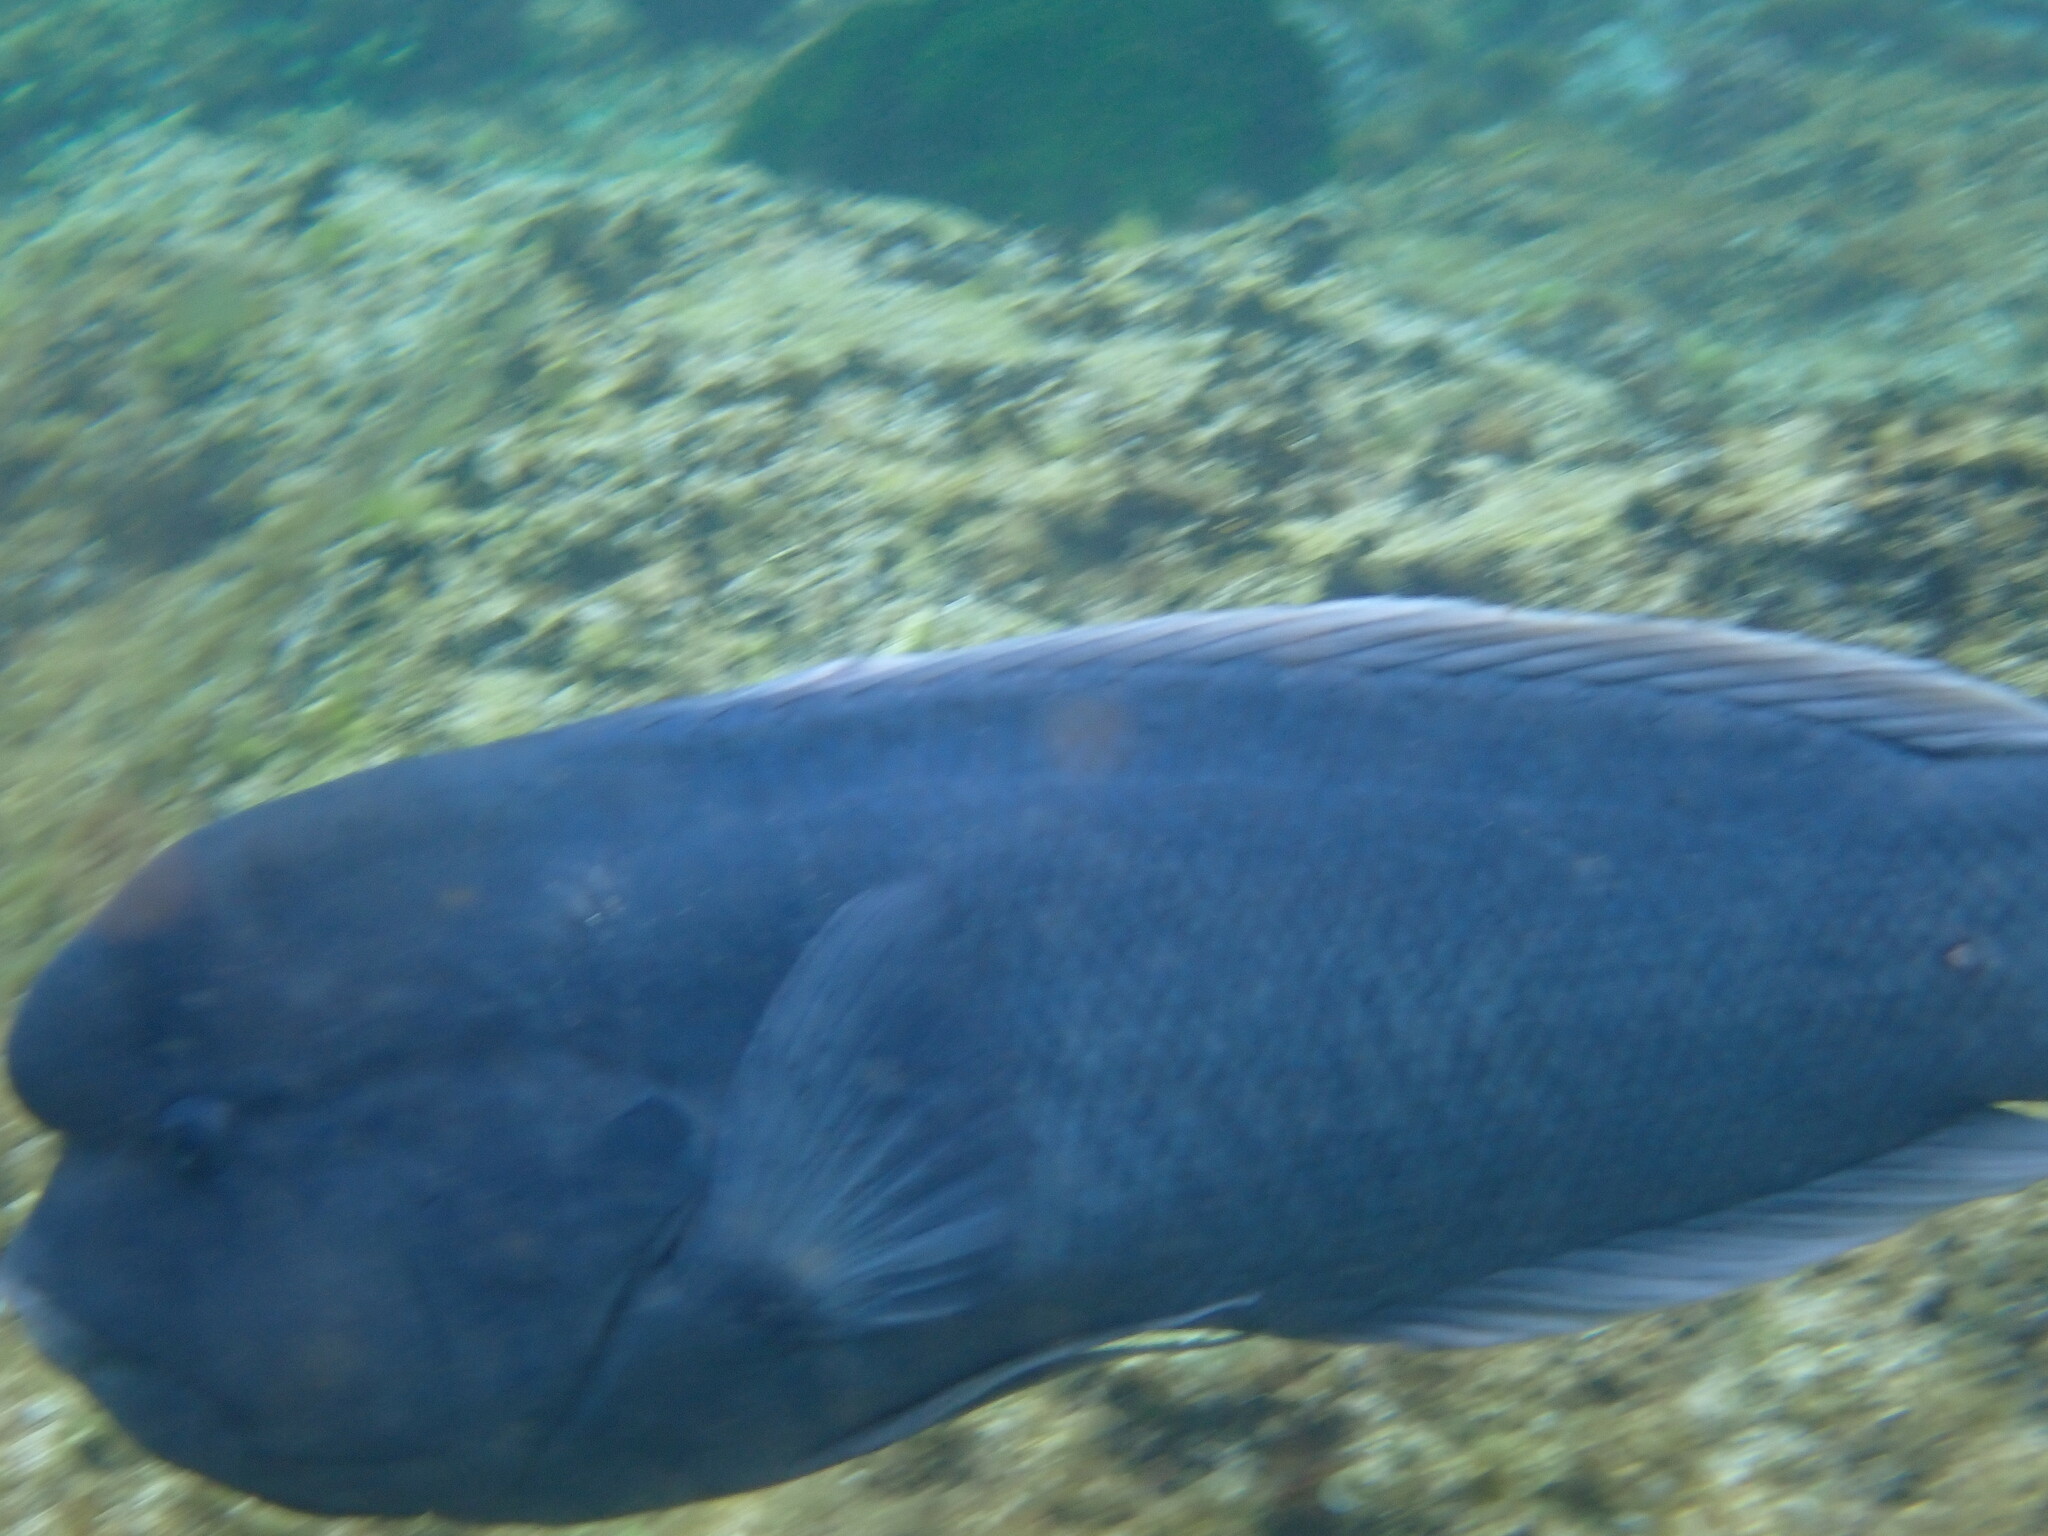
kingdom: Animalia
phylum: Chordata
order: Perciformes
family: Labridae
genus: Coris
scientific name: Coris bulbifrons
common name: Doubleheader
